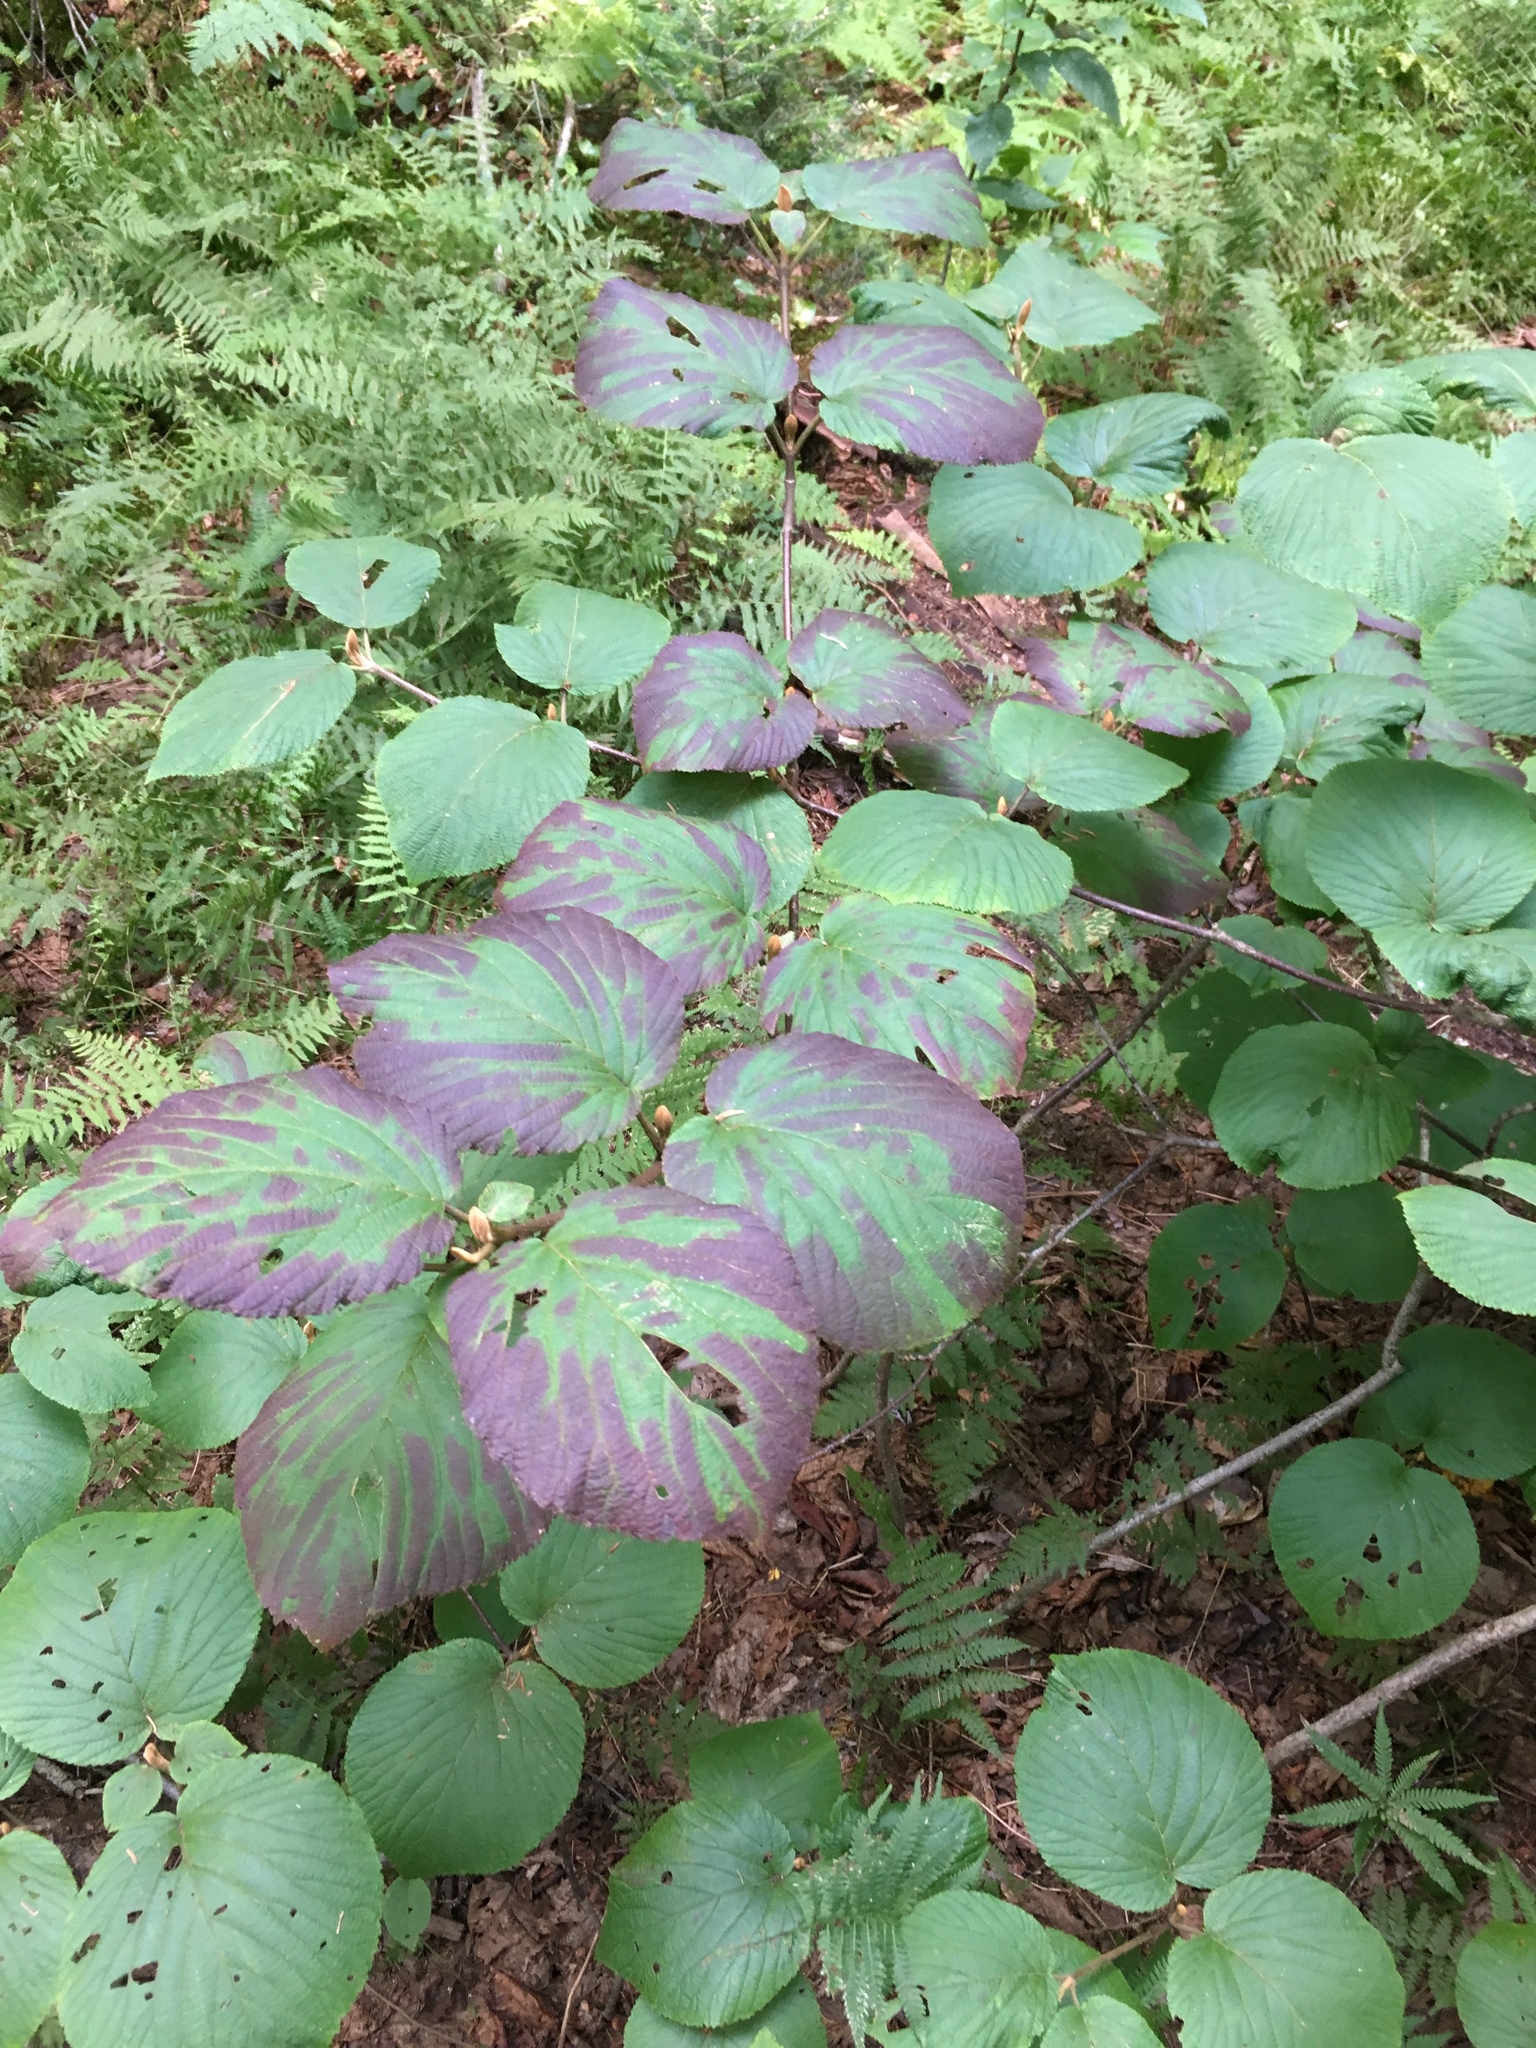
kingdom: Plantae
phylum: Tracheophyta
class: Magnoliopsida
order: Dipsacales
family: Viburnaceae
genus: Viburnum
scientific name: Viburnum lantanoides
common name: Hobblebush
